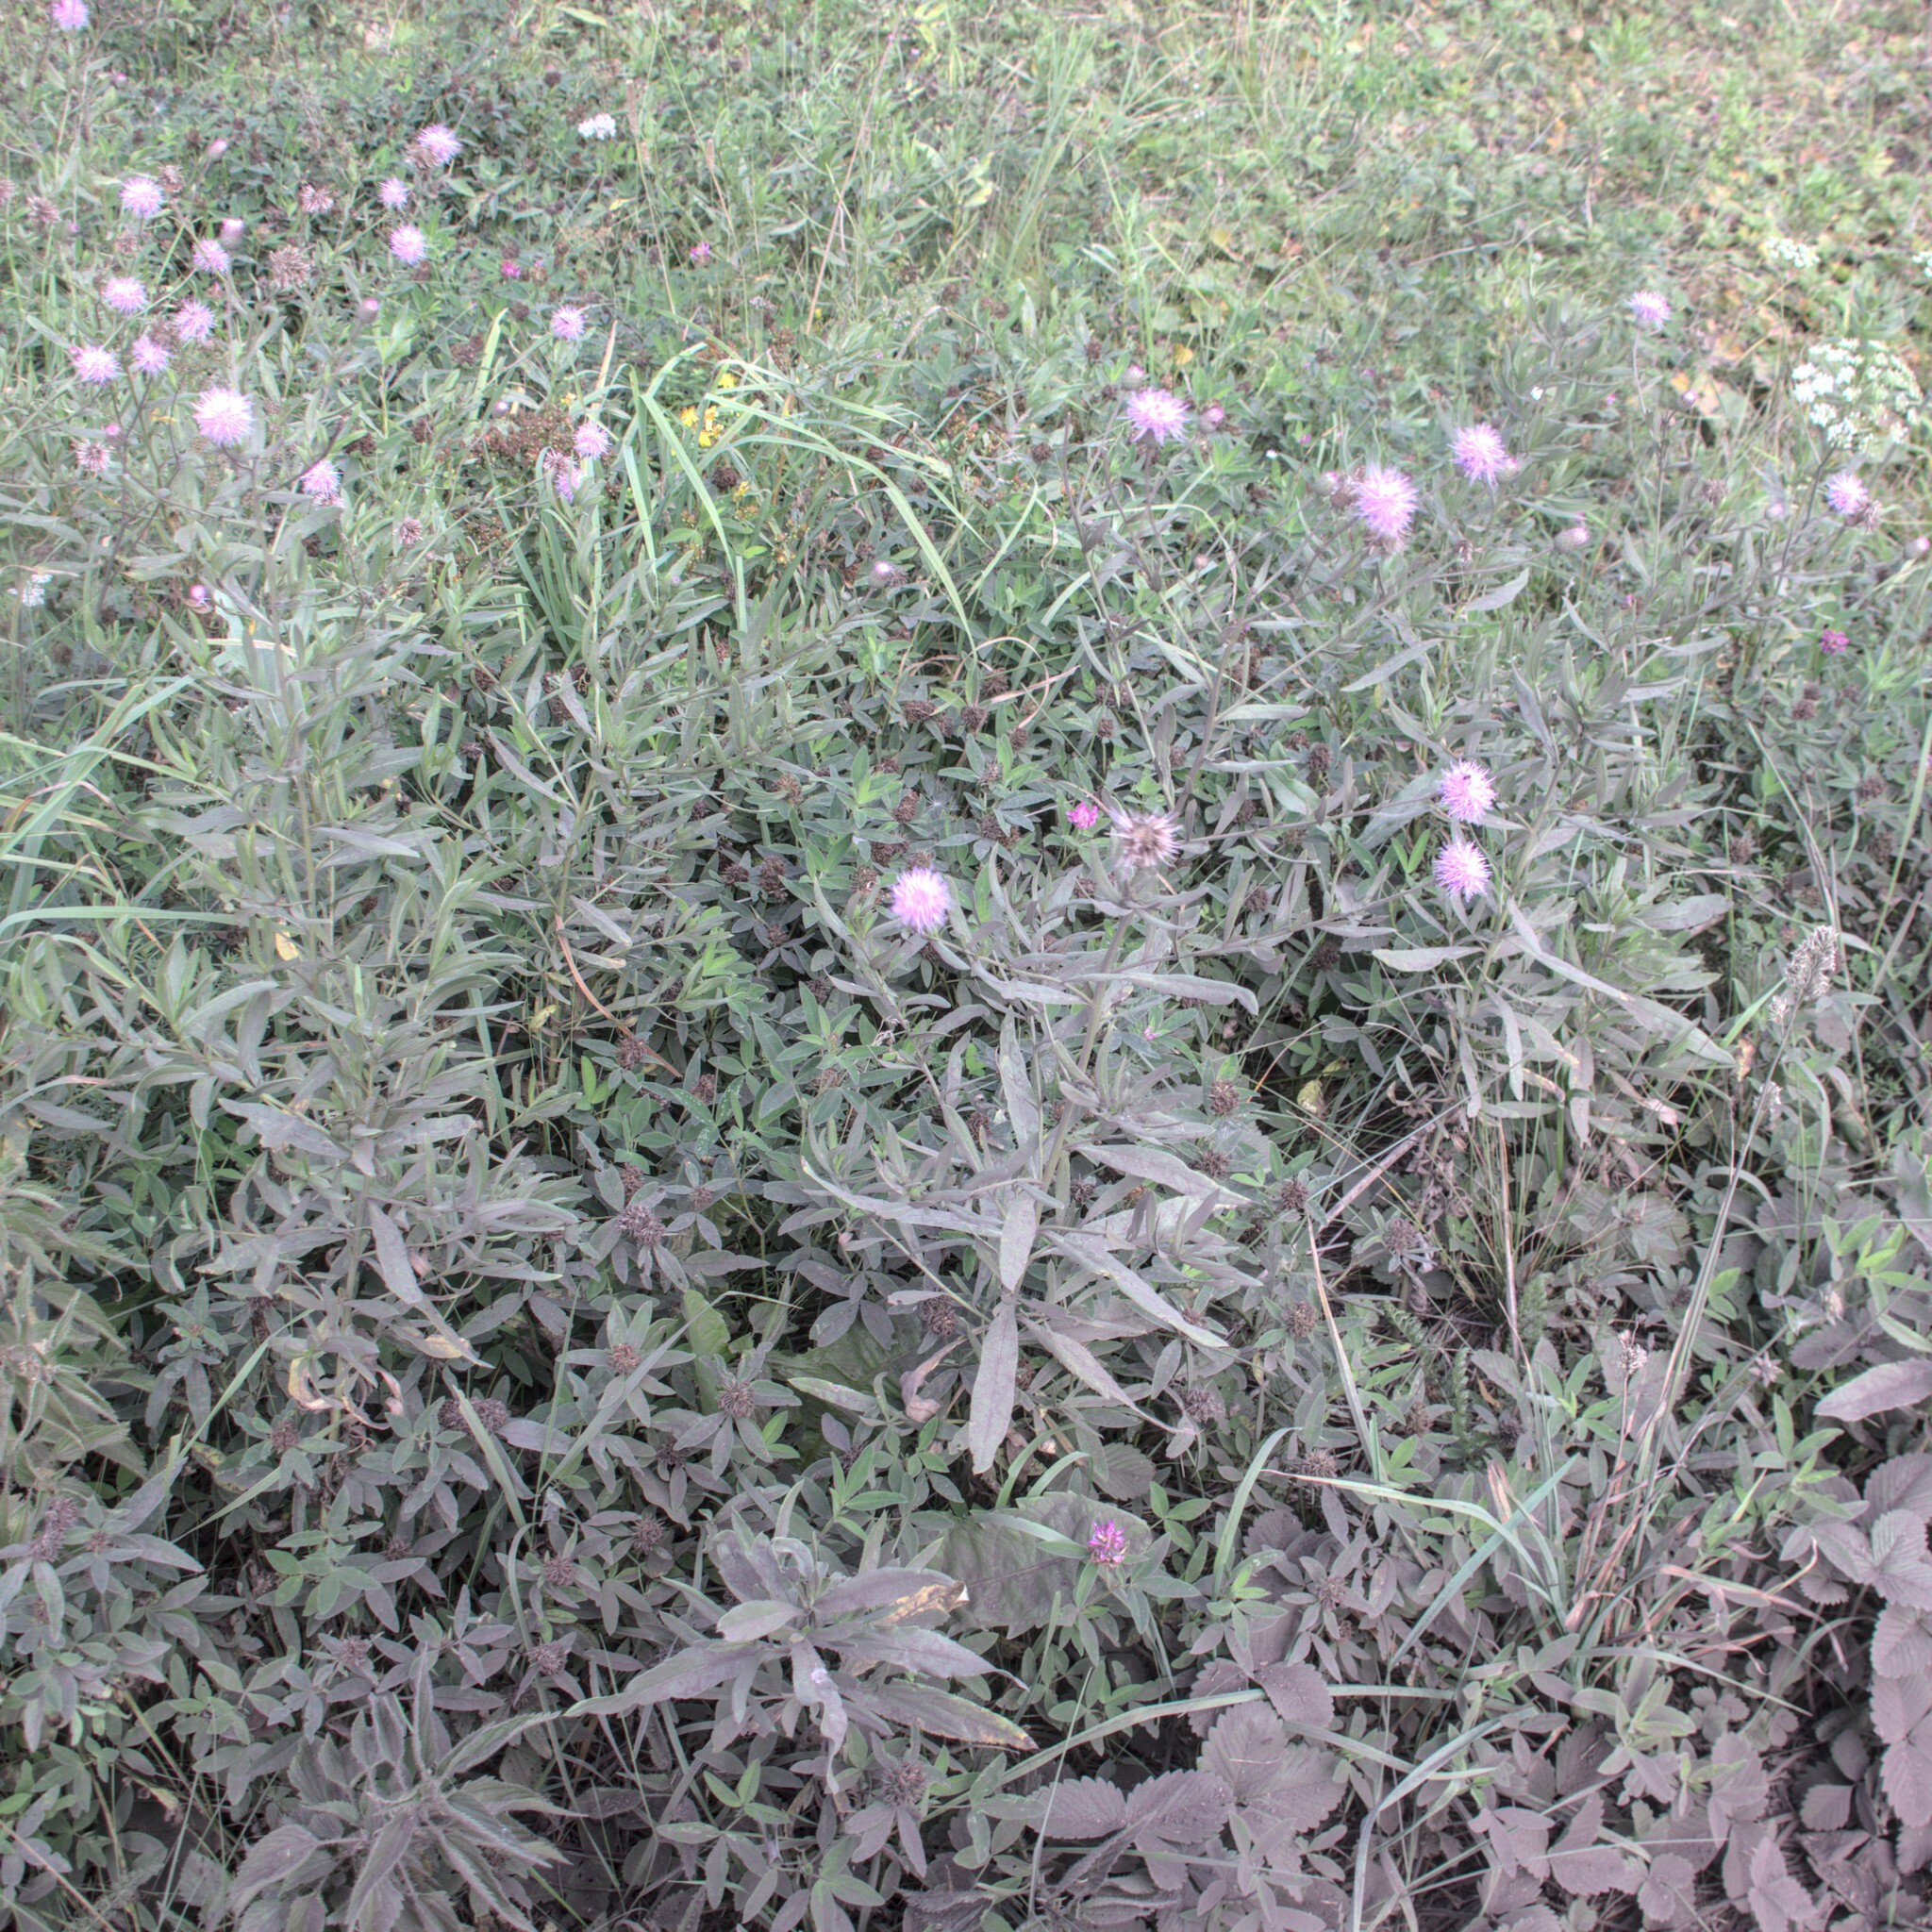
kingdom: Plantae
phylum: Tracheophyta
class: Magnoliopsida
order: Asterales
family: Asteraceae
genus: Cirsium
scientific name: Cirsium arvense
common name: Creeping thistle
